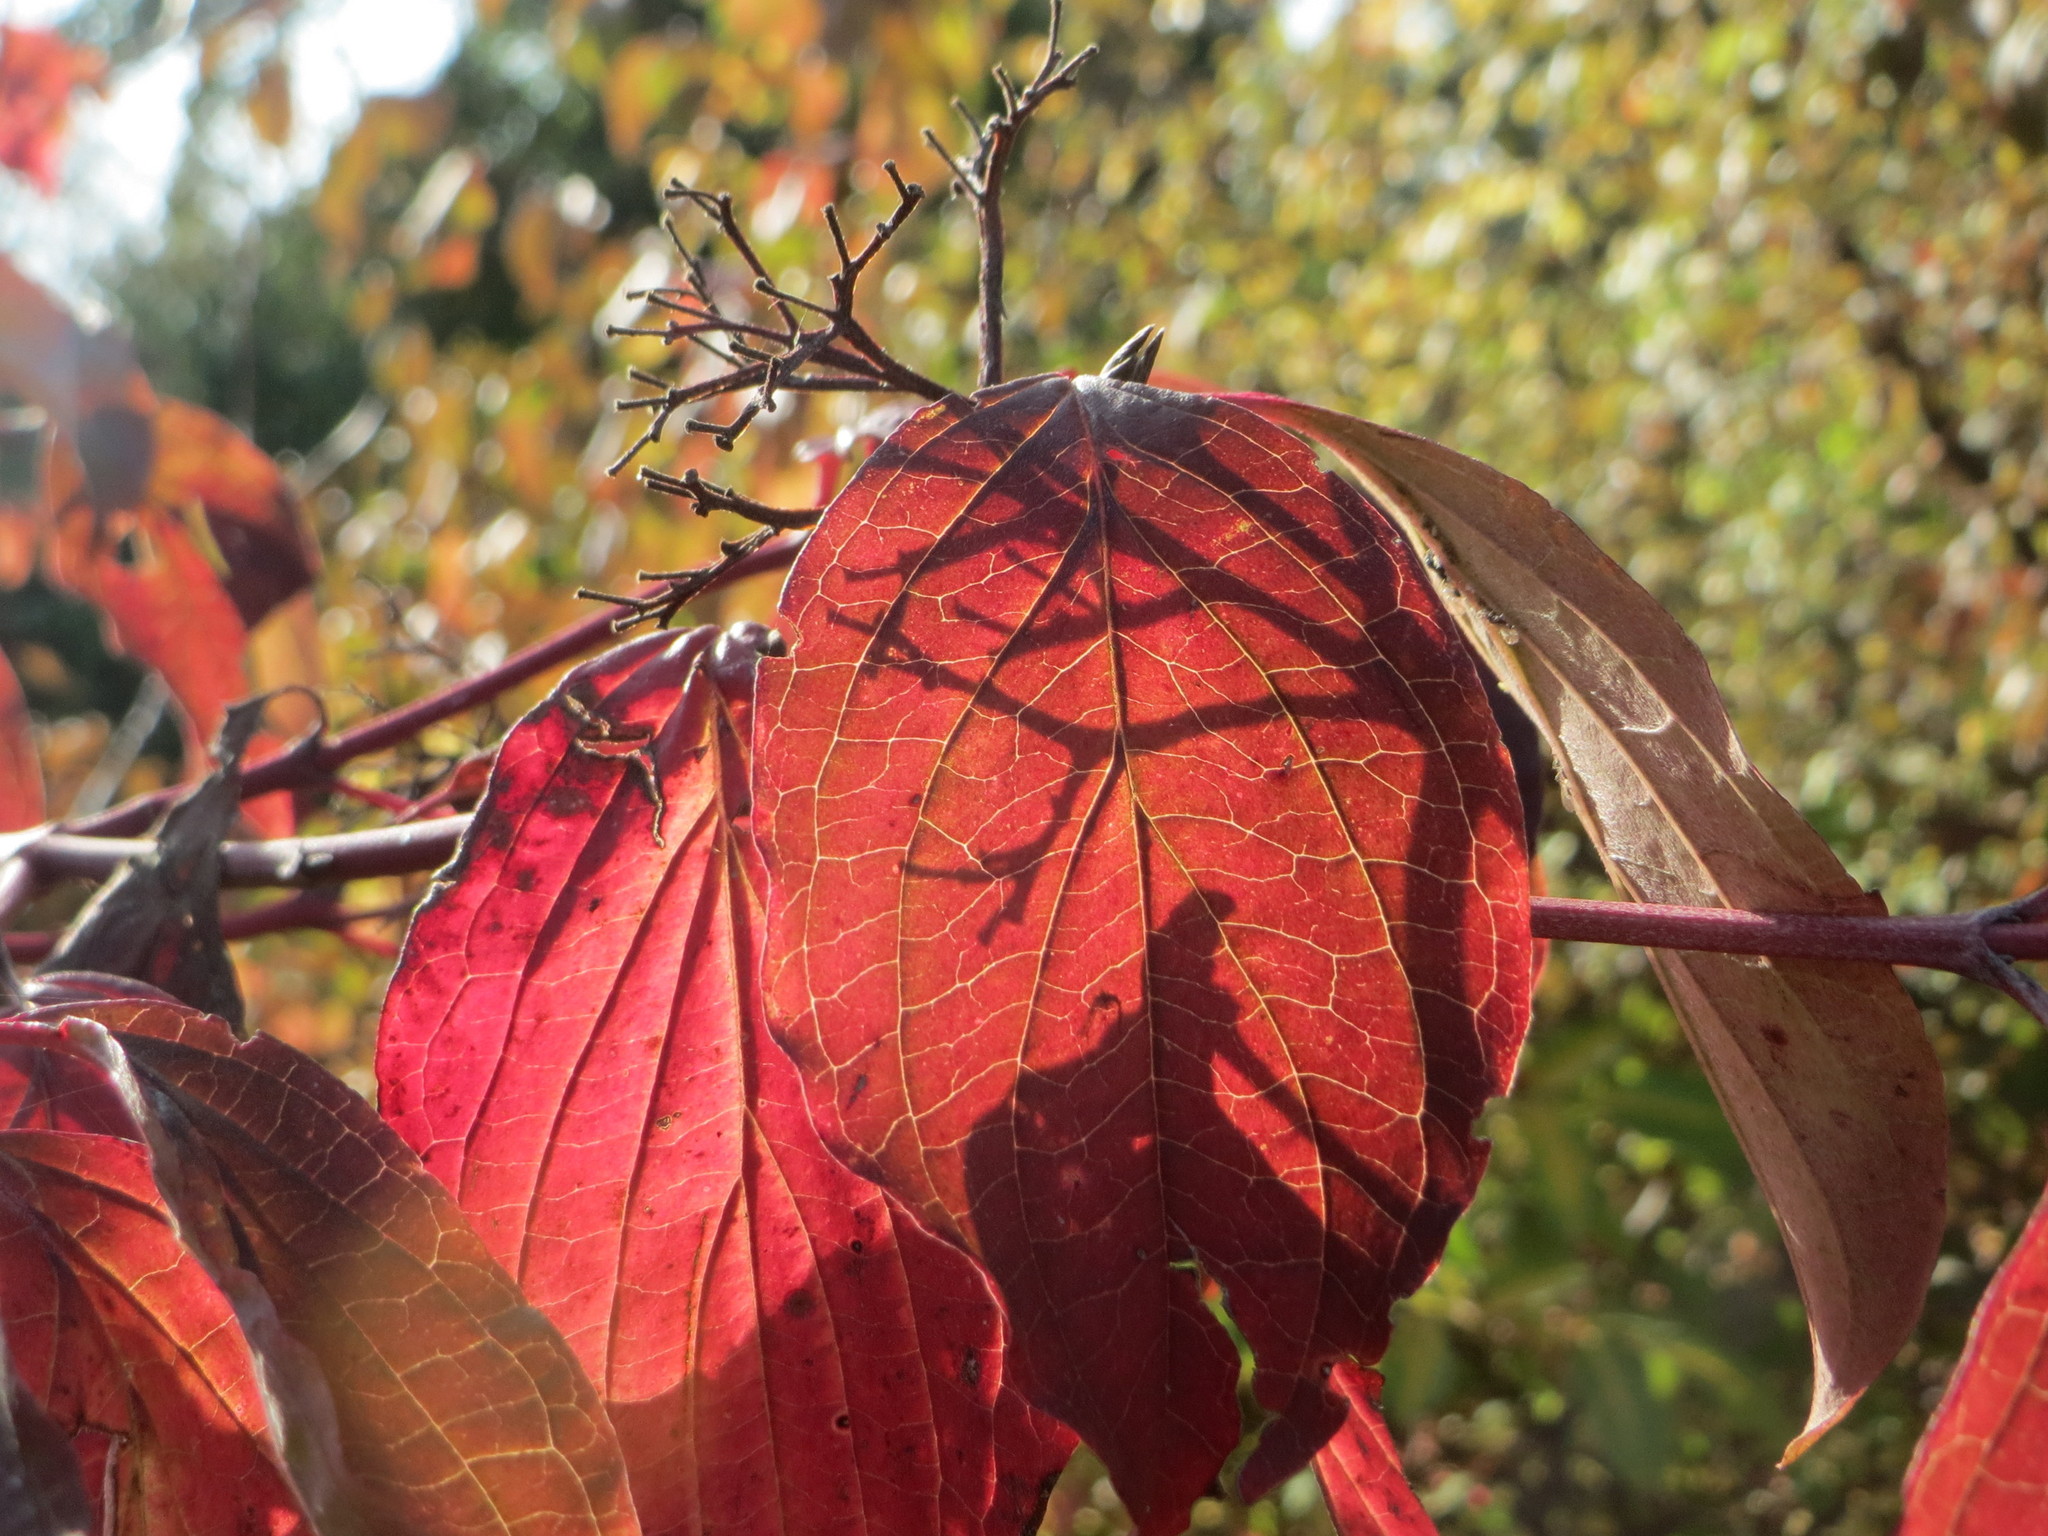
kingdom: Plantae
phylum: Tracheophyta
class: Magnoliopsida
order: Cornales
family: Cornaceae
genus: Cornus
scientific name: Cornus sanguinea
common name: Dogwood
